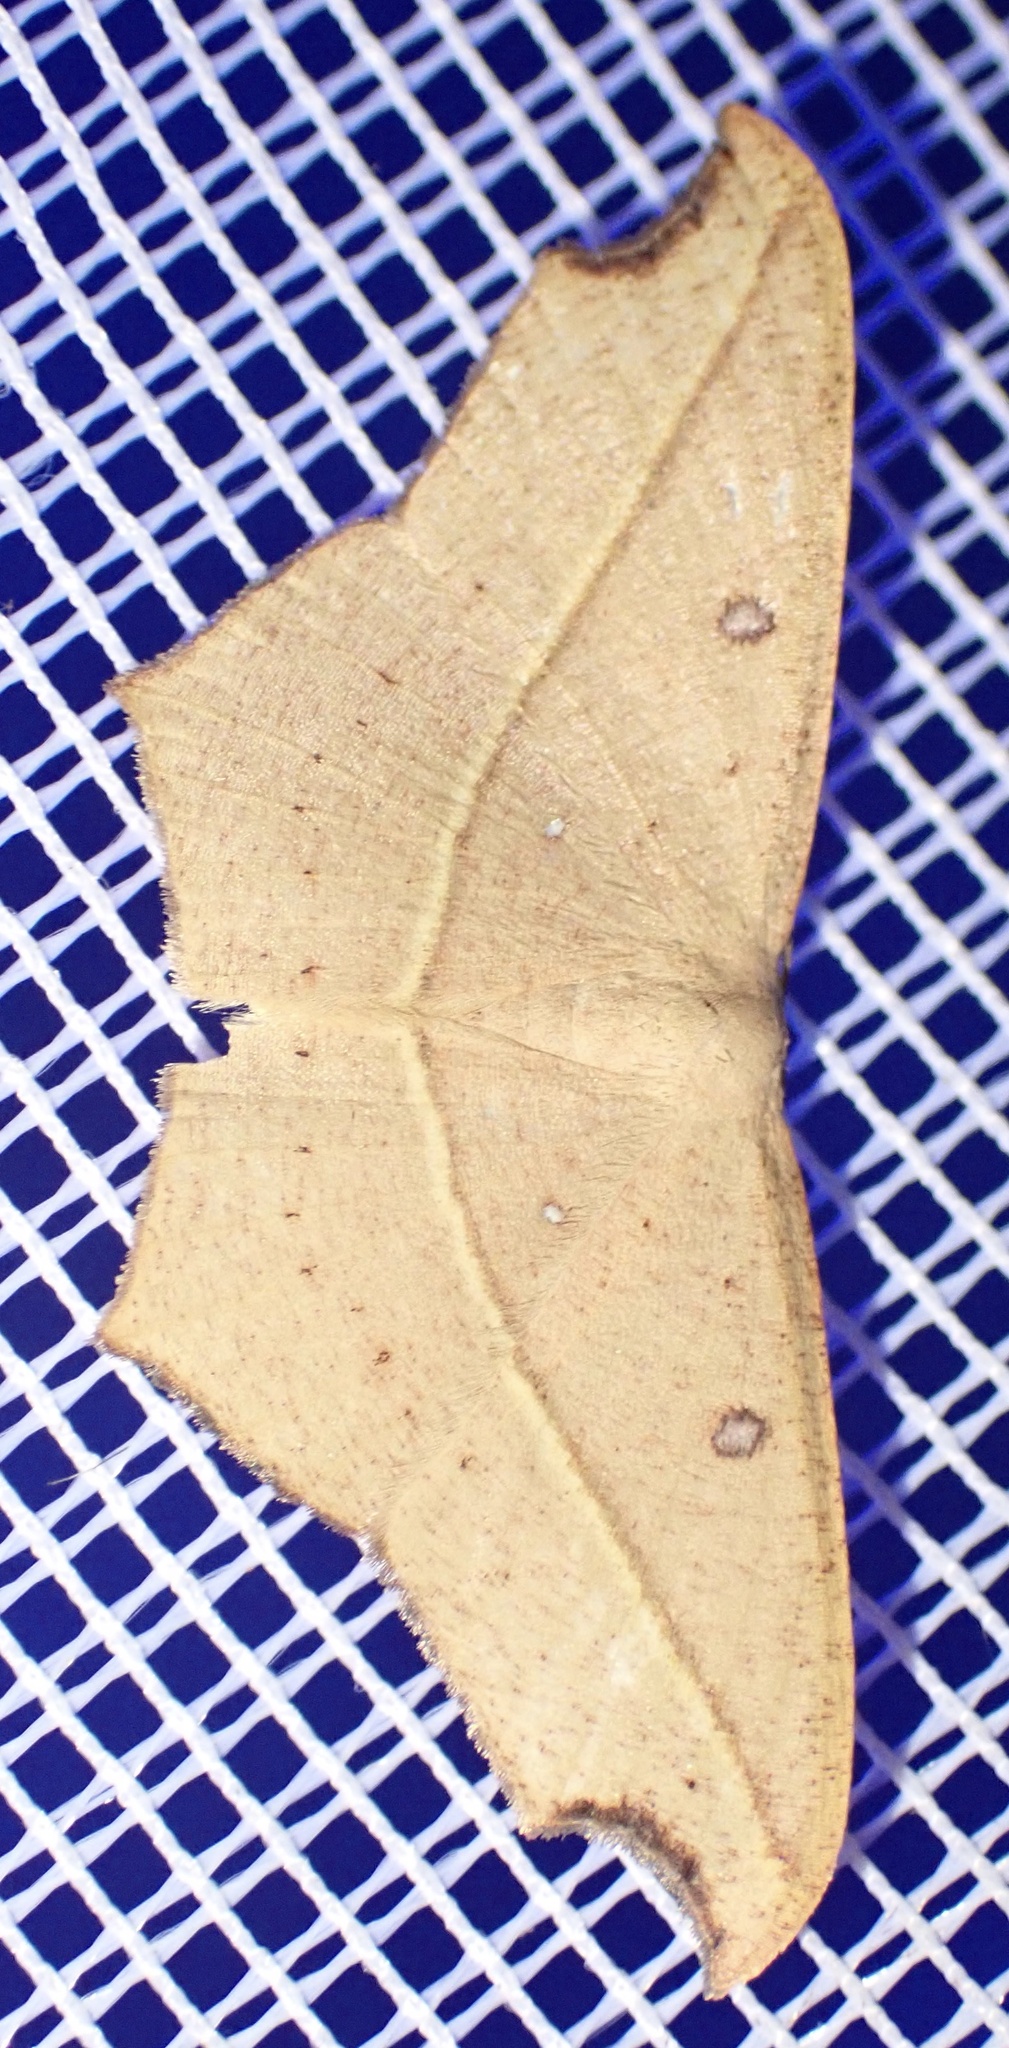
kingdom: Animalia
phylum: Arthropoda
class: Insecta
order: Lepidoptera
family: Geometridae
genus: Traminda
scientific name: Traminda aventiaria
